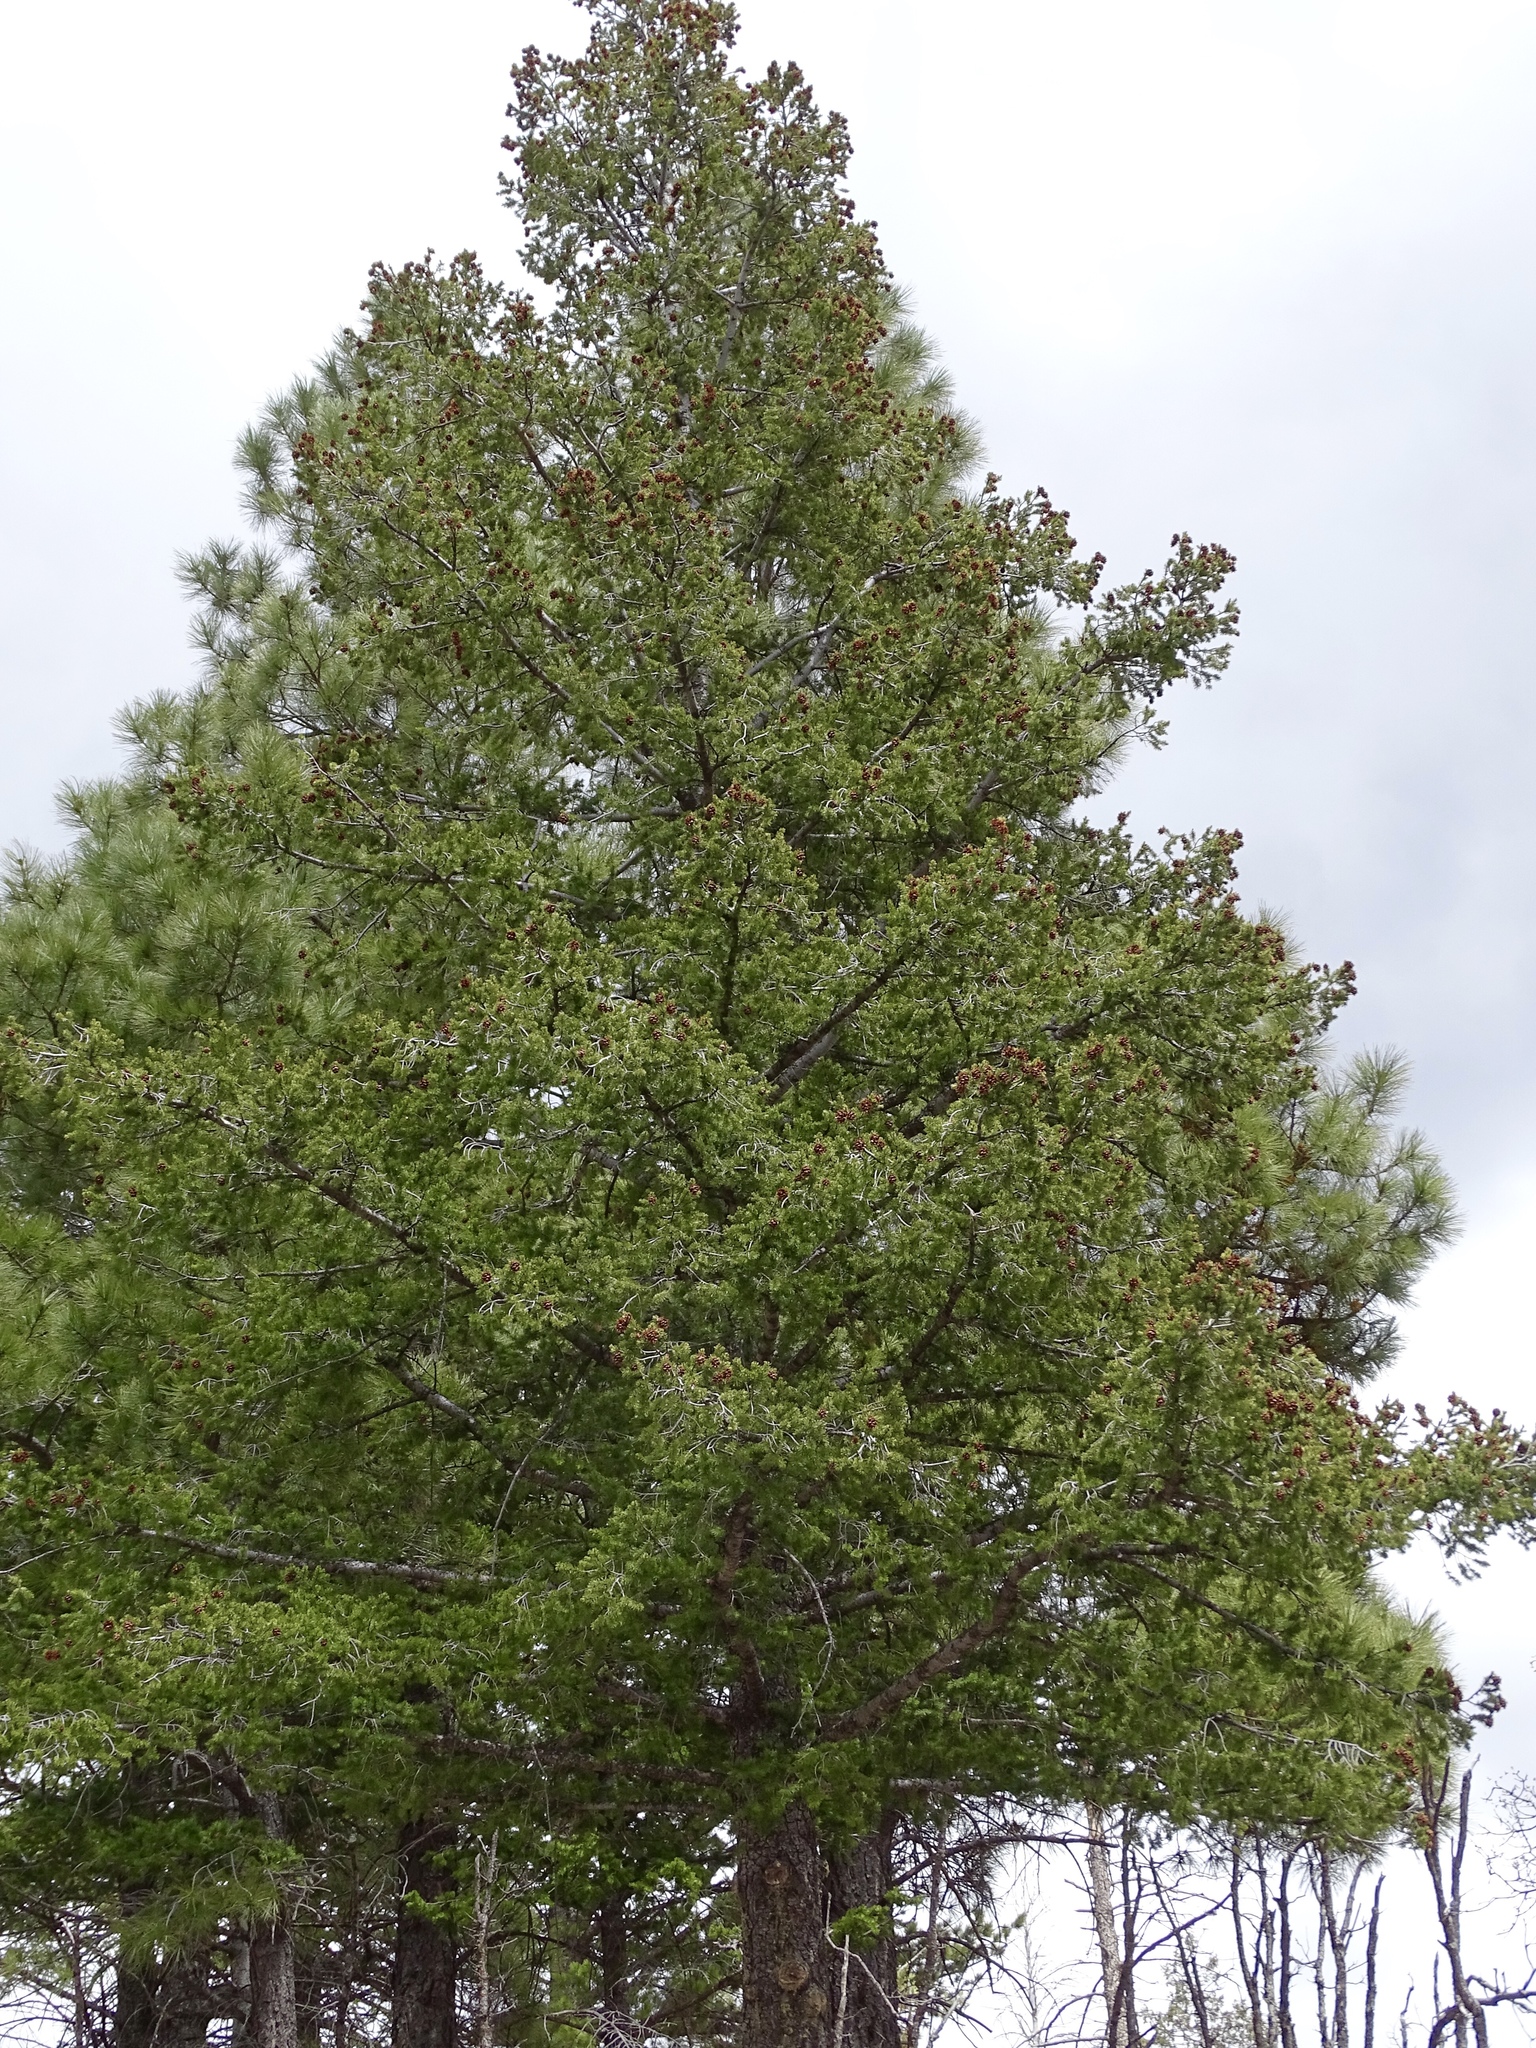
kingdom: Plantae
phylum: Tracheophyta
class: Pinopsida
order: Pinales
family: Pinaceae
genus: Pseudotsuga
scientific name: Pseudotsuga menziesii
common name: Douglas fir
